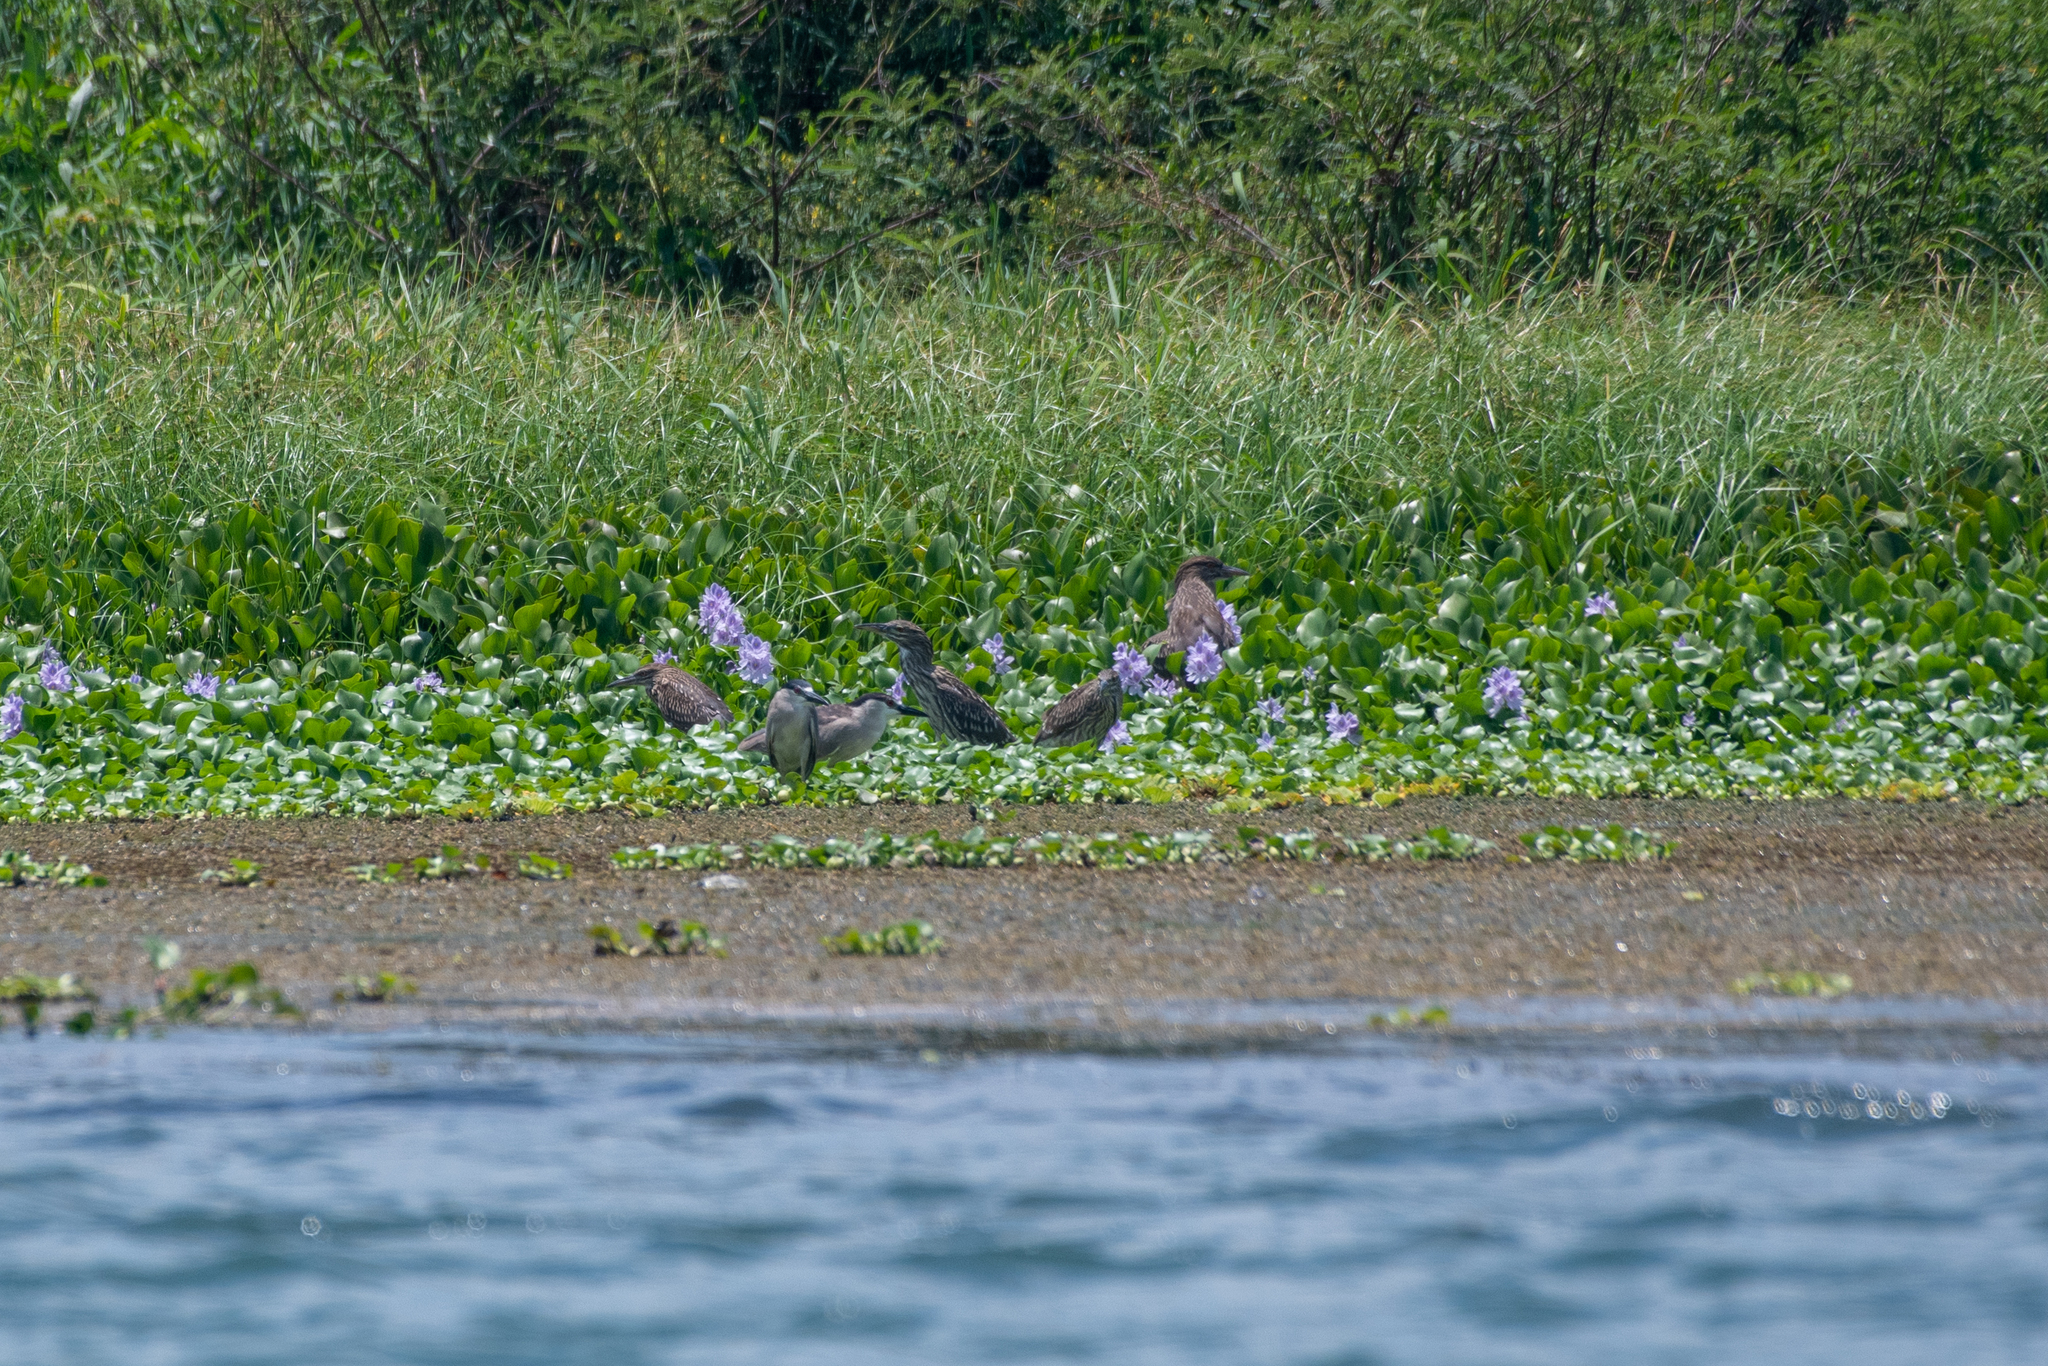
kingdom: Animalia
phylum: Chordata
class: Aves
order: Pelecaniformes
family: Ardeidae
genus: Nycticorax
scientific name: Nycticorax nycticorax
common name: Black-crowned night heron
